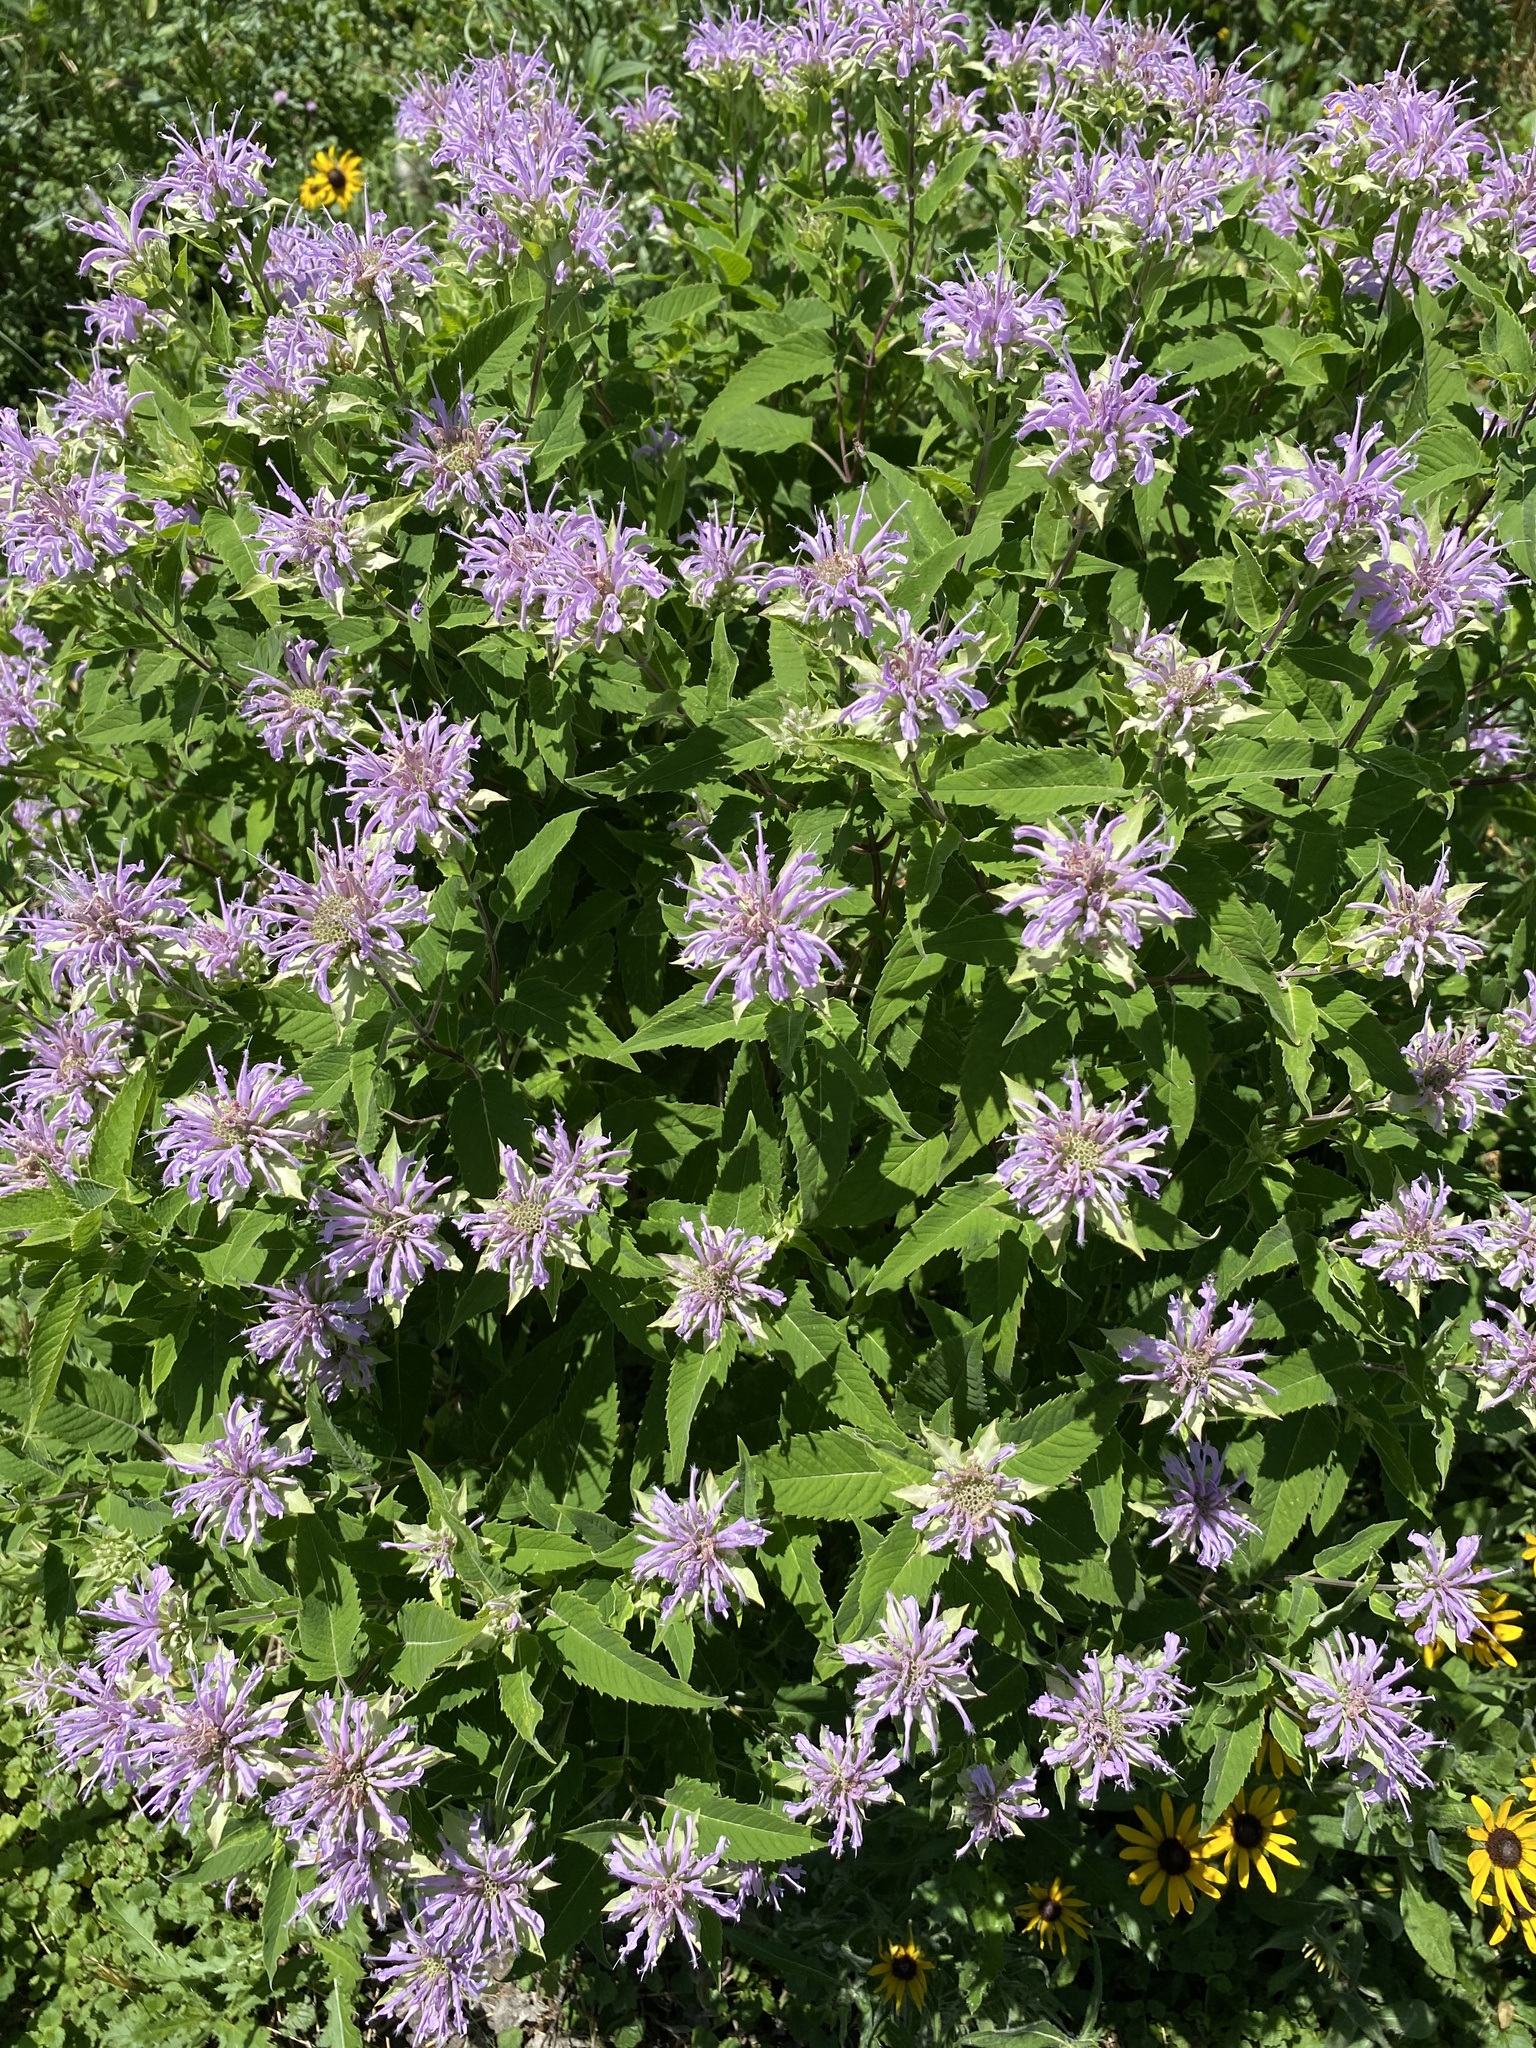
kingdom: Plantae
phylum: Tracheophyta
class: Magnoliopsida
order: Lamiales
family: Lamiaceae
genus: Monarda
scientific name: Monarda fistulosa
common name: Purple beebalm
